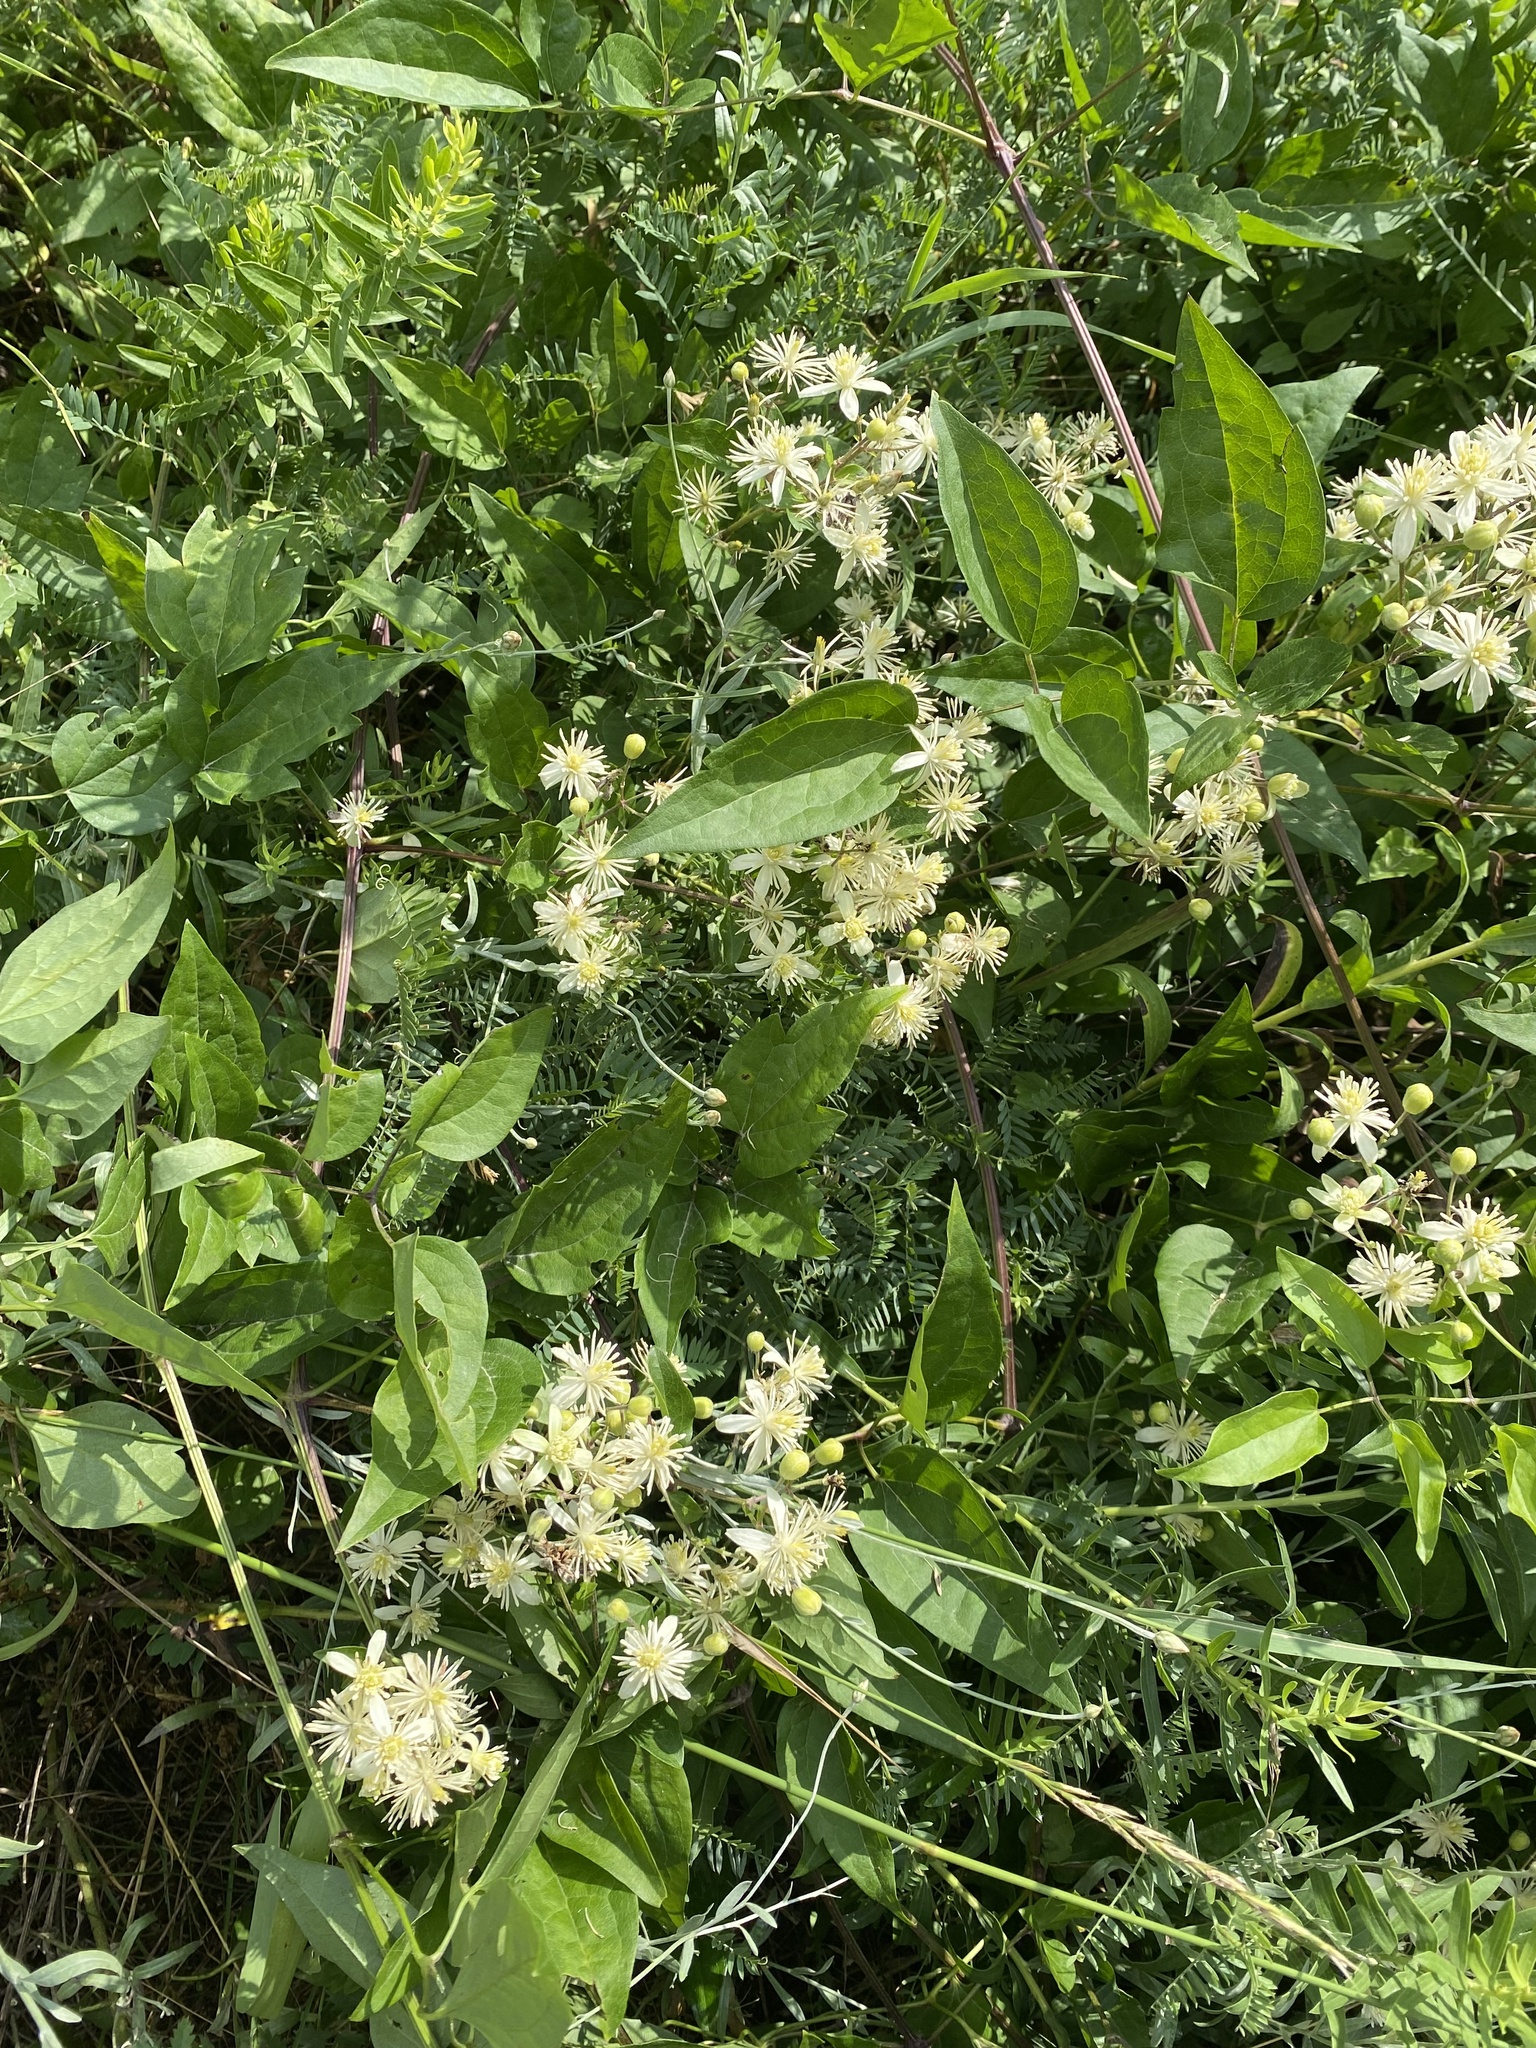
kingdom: Plantae
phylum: Tracheophyta
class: Magnoliopsida
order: Ranunculales
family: Ranunculaceae
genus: Clematis
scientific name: Clematis vitalba
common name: Evergreen clematis
